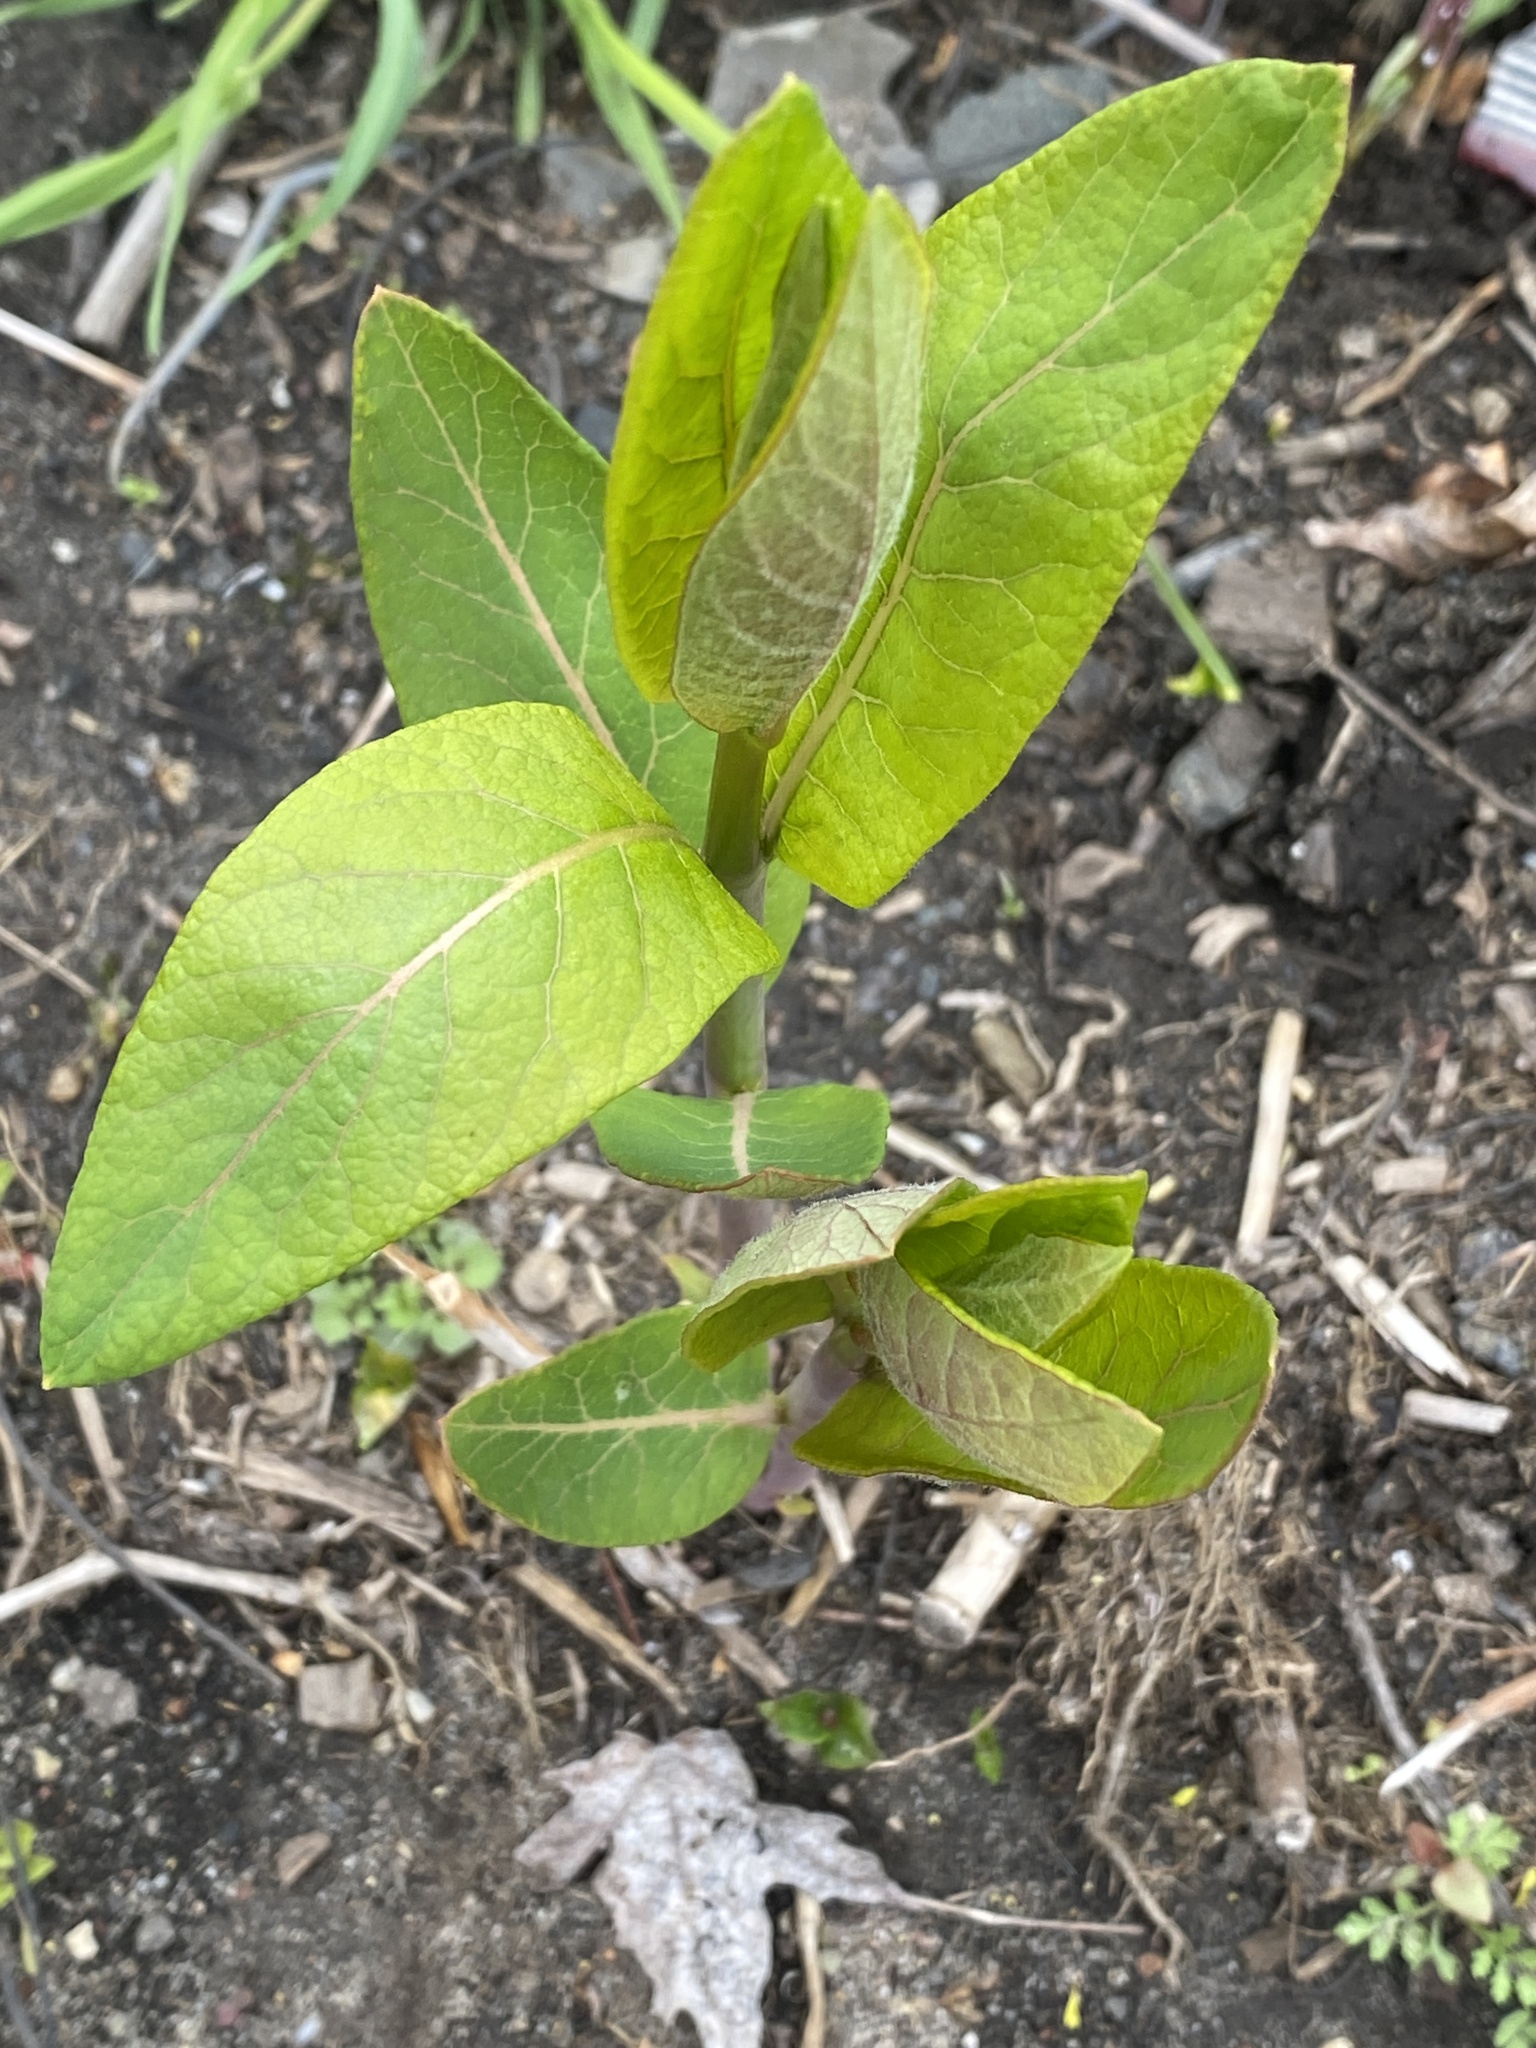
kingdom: Plantae
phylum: Tracheophyta
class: Magnoliopsida
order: Gentianales
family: Apocynaceae
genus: Apocynum
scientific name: Apocynum cannabinum
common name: Hemp dogbane
